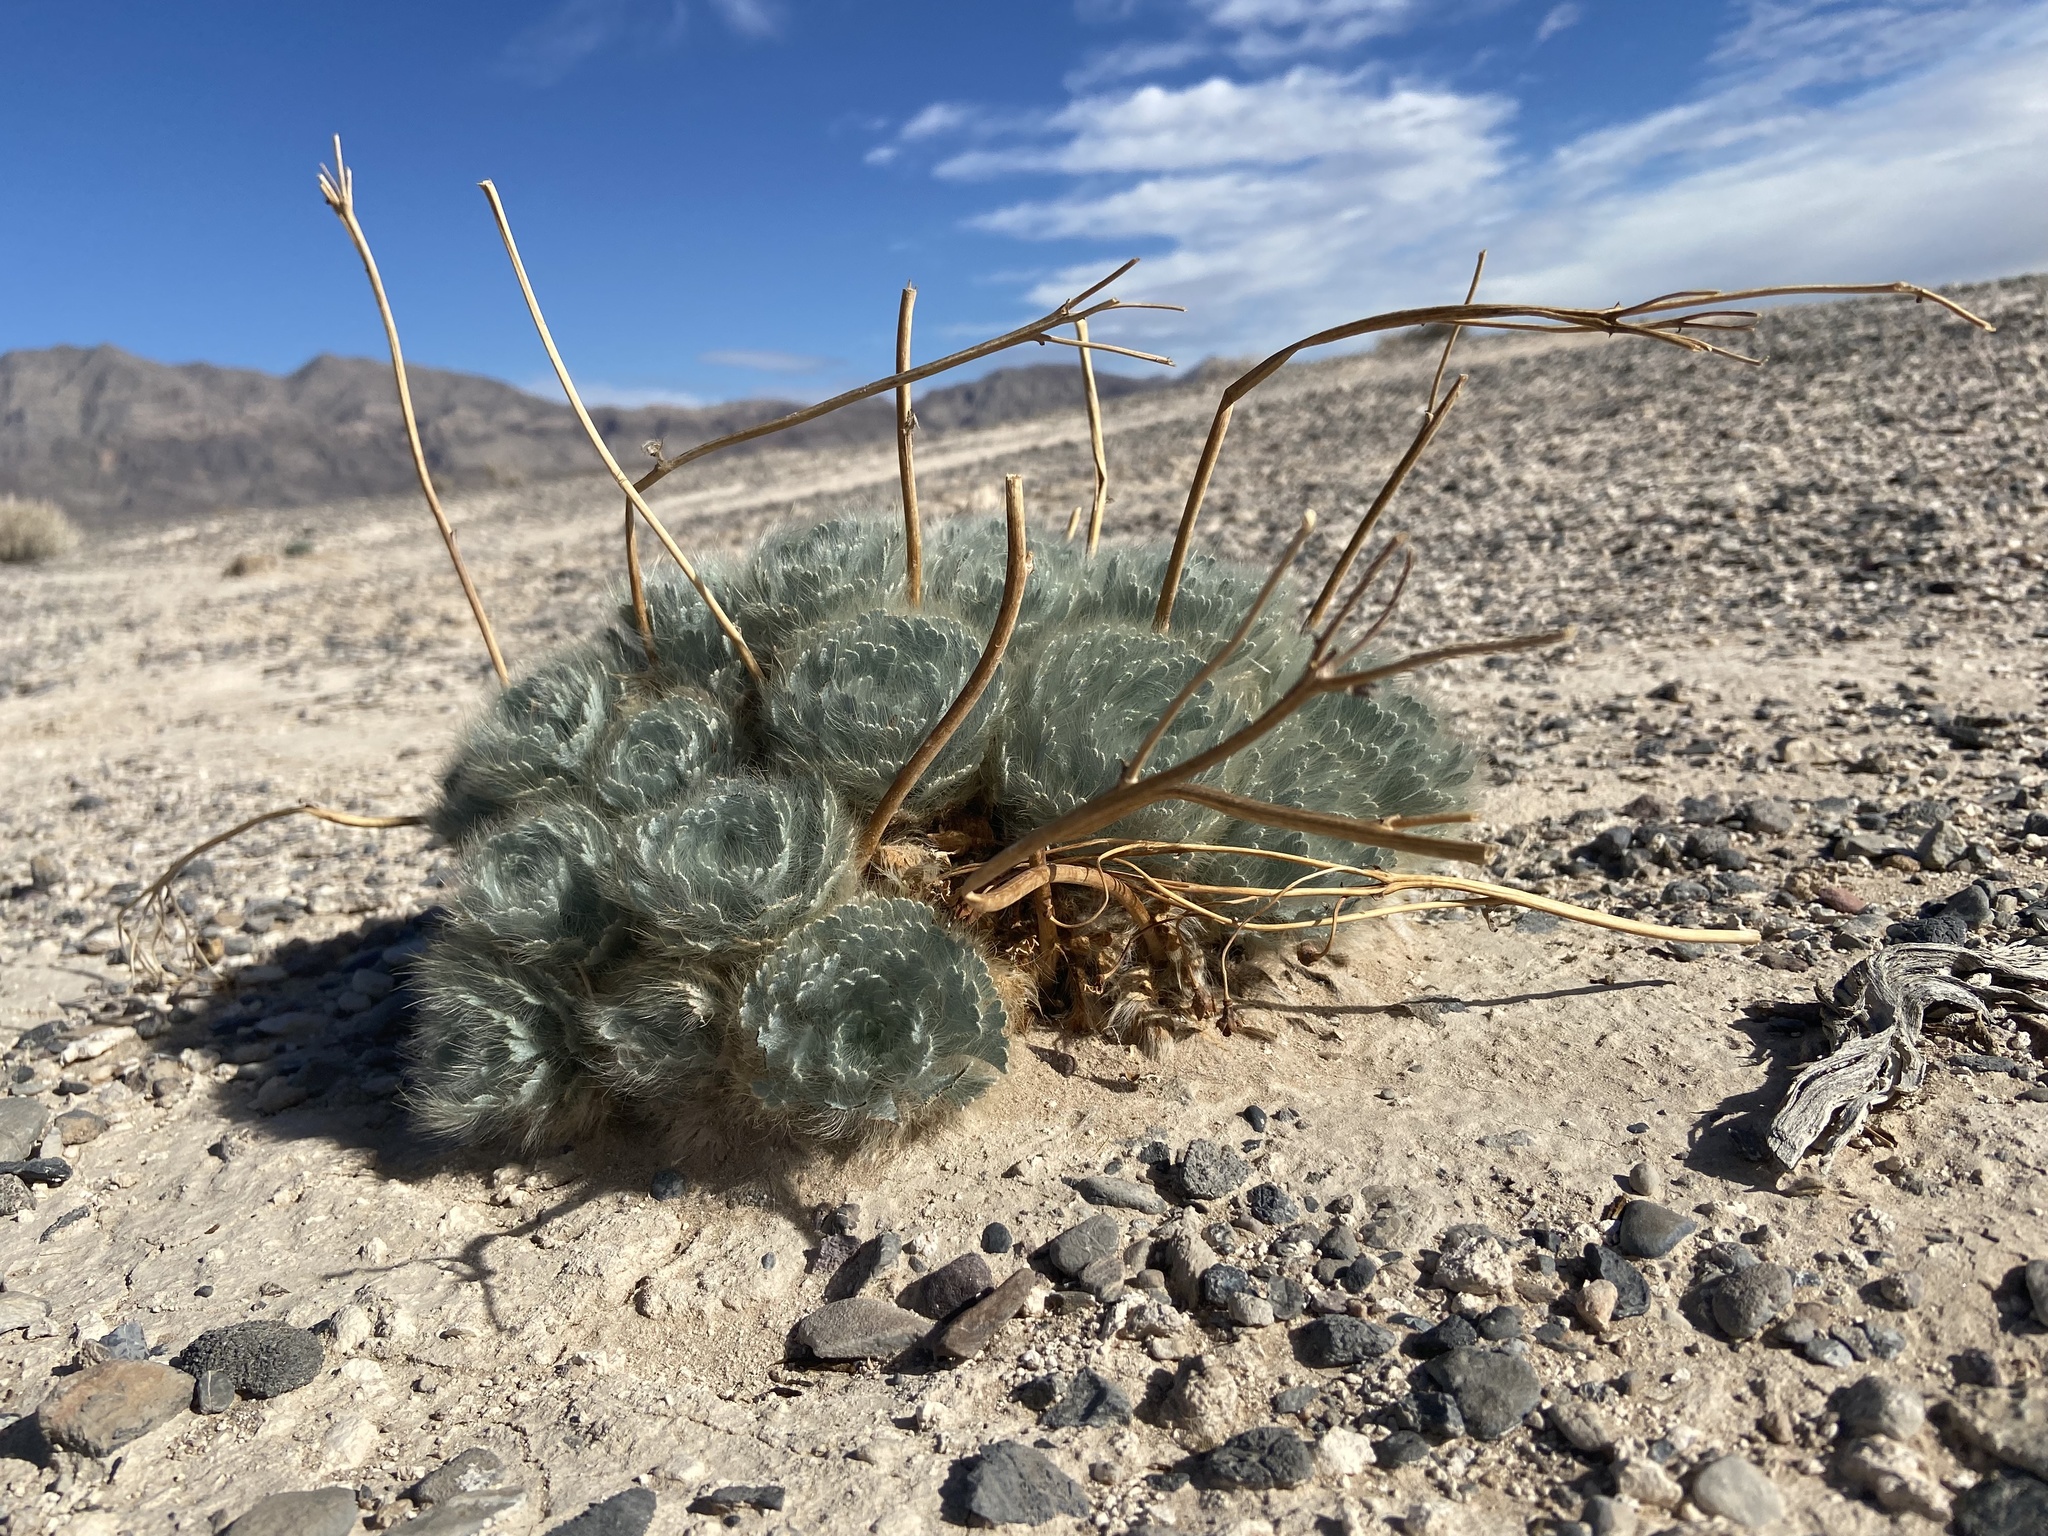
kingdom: Plantae
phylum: Tracheophyta
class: Magnoliopsida
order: Ranunculales
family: Papaveraceae
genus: Arctomecon
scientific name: Arctomecon californicum
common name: Golden bearclaw-poppy
